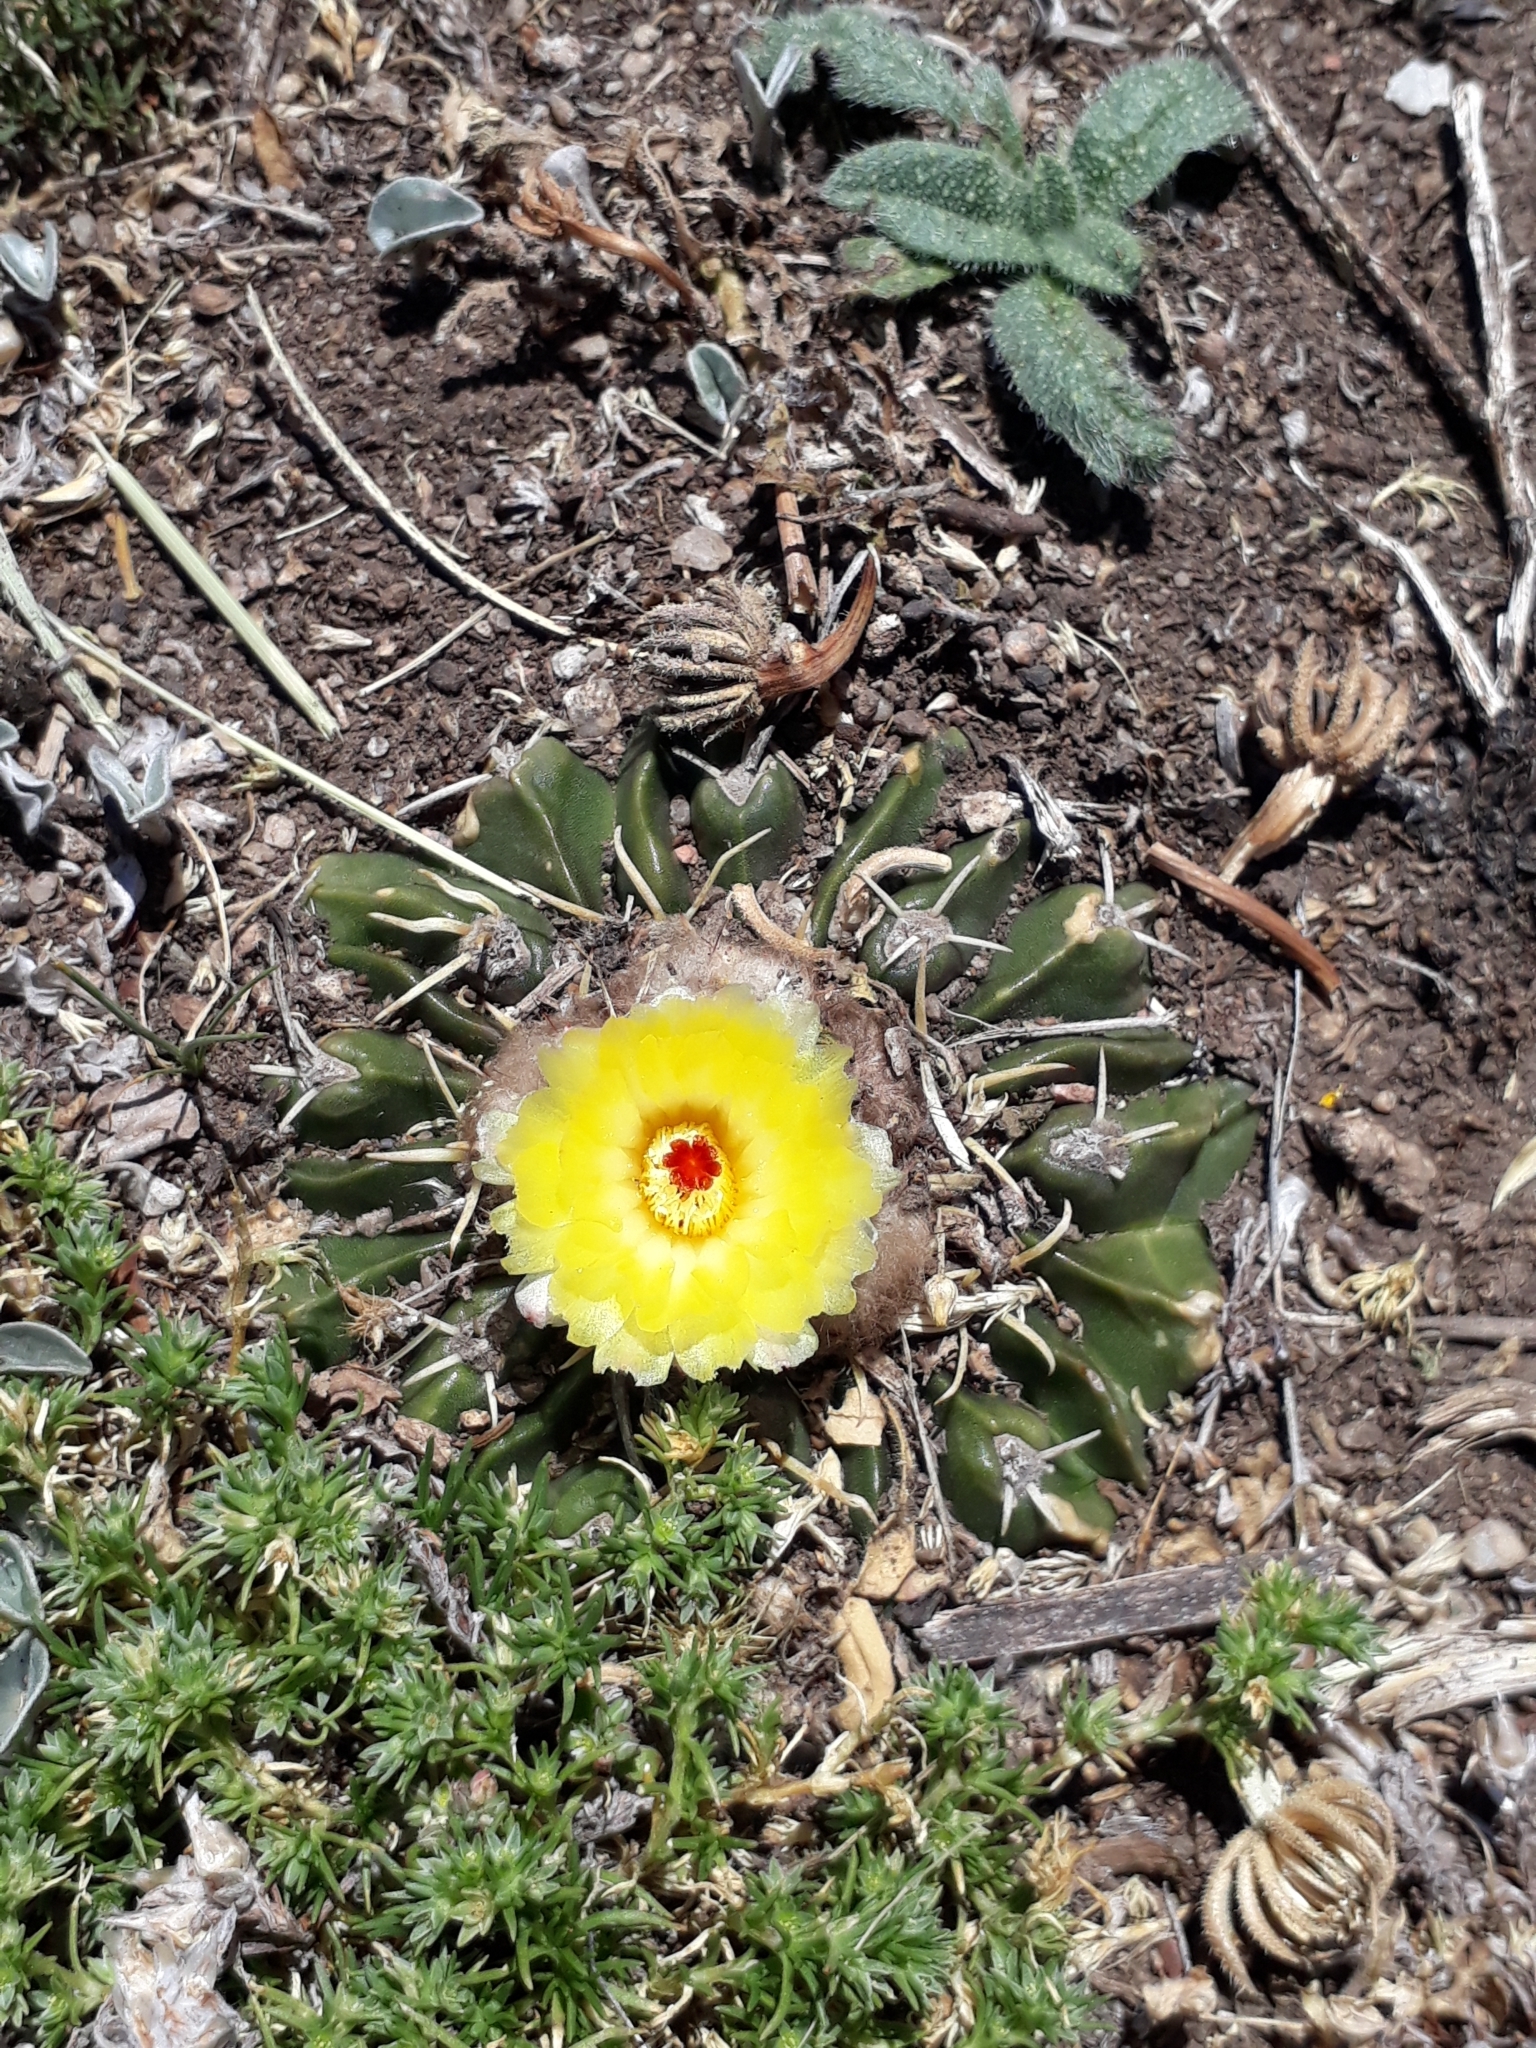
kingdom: Plantae
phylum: Tracheophyta
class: Magnoliopsida
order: Caryophyllales
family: Cactaceae
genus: Parodia
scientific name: Parodia erinacea
